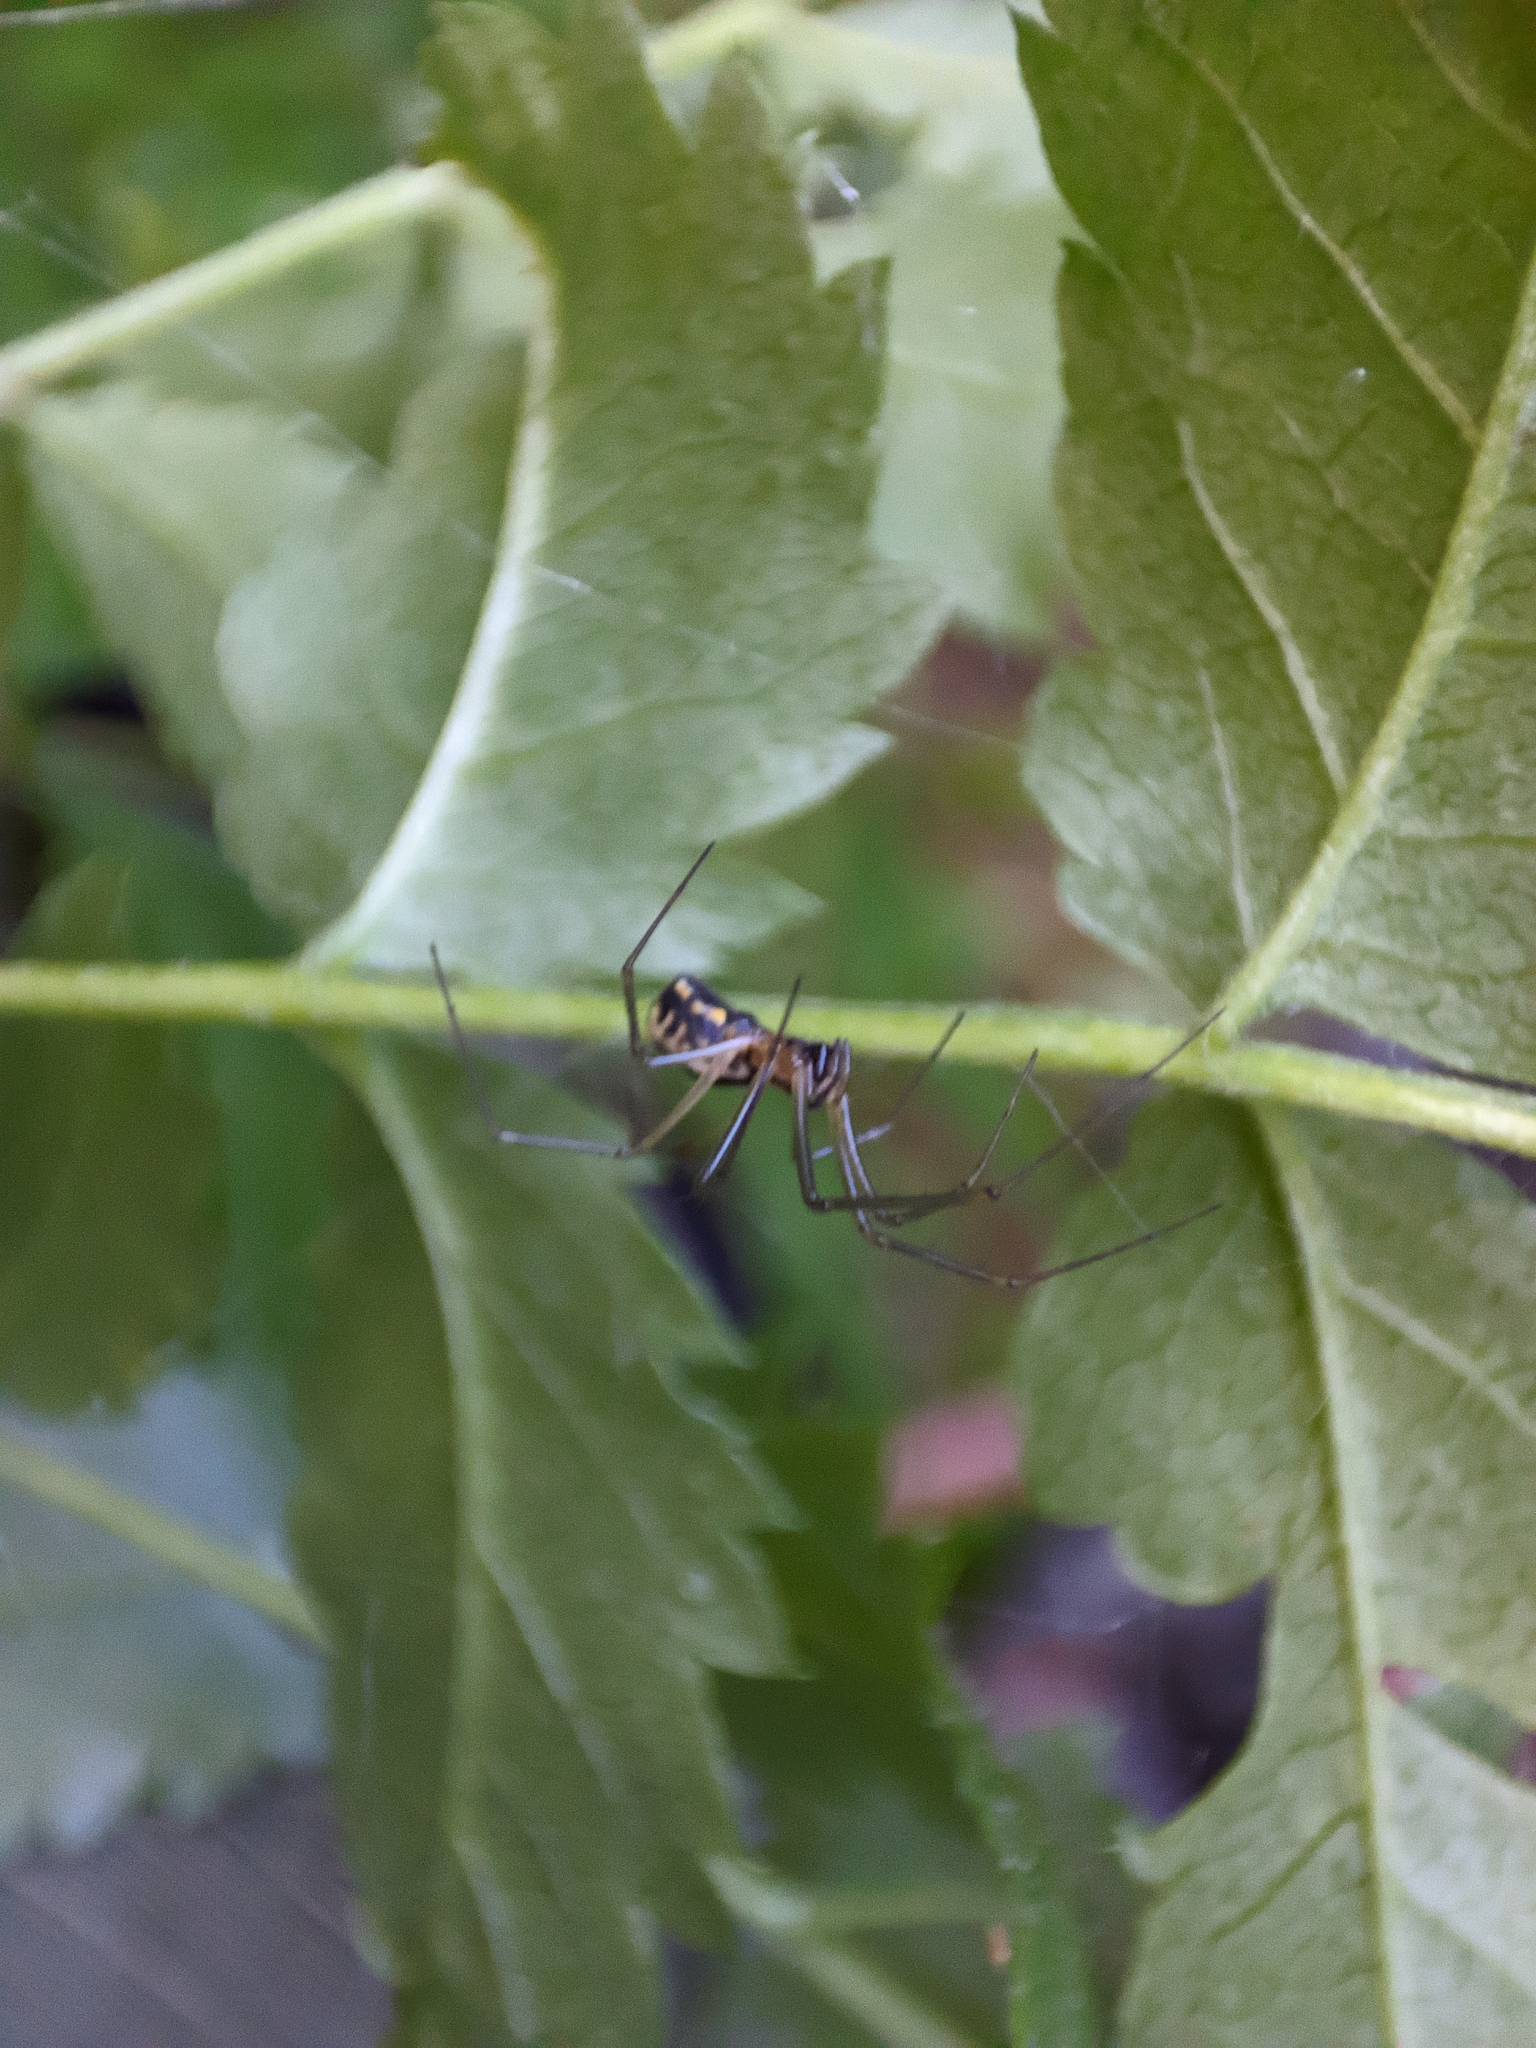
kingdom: Animalia
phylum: Arthropoda
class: Arachnida
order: Araneae
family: Linyphiidae
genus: Neriene
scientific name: Neriene radiata
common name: Filmy dome spider
